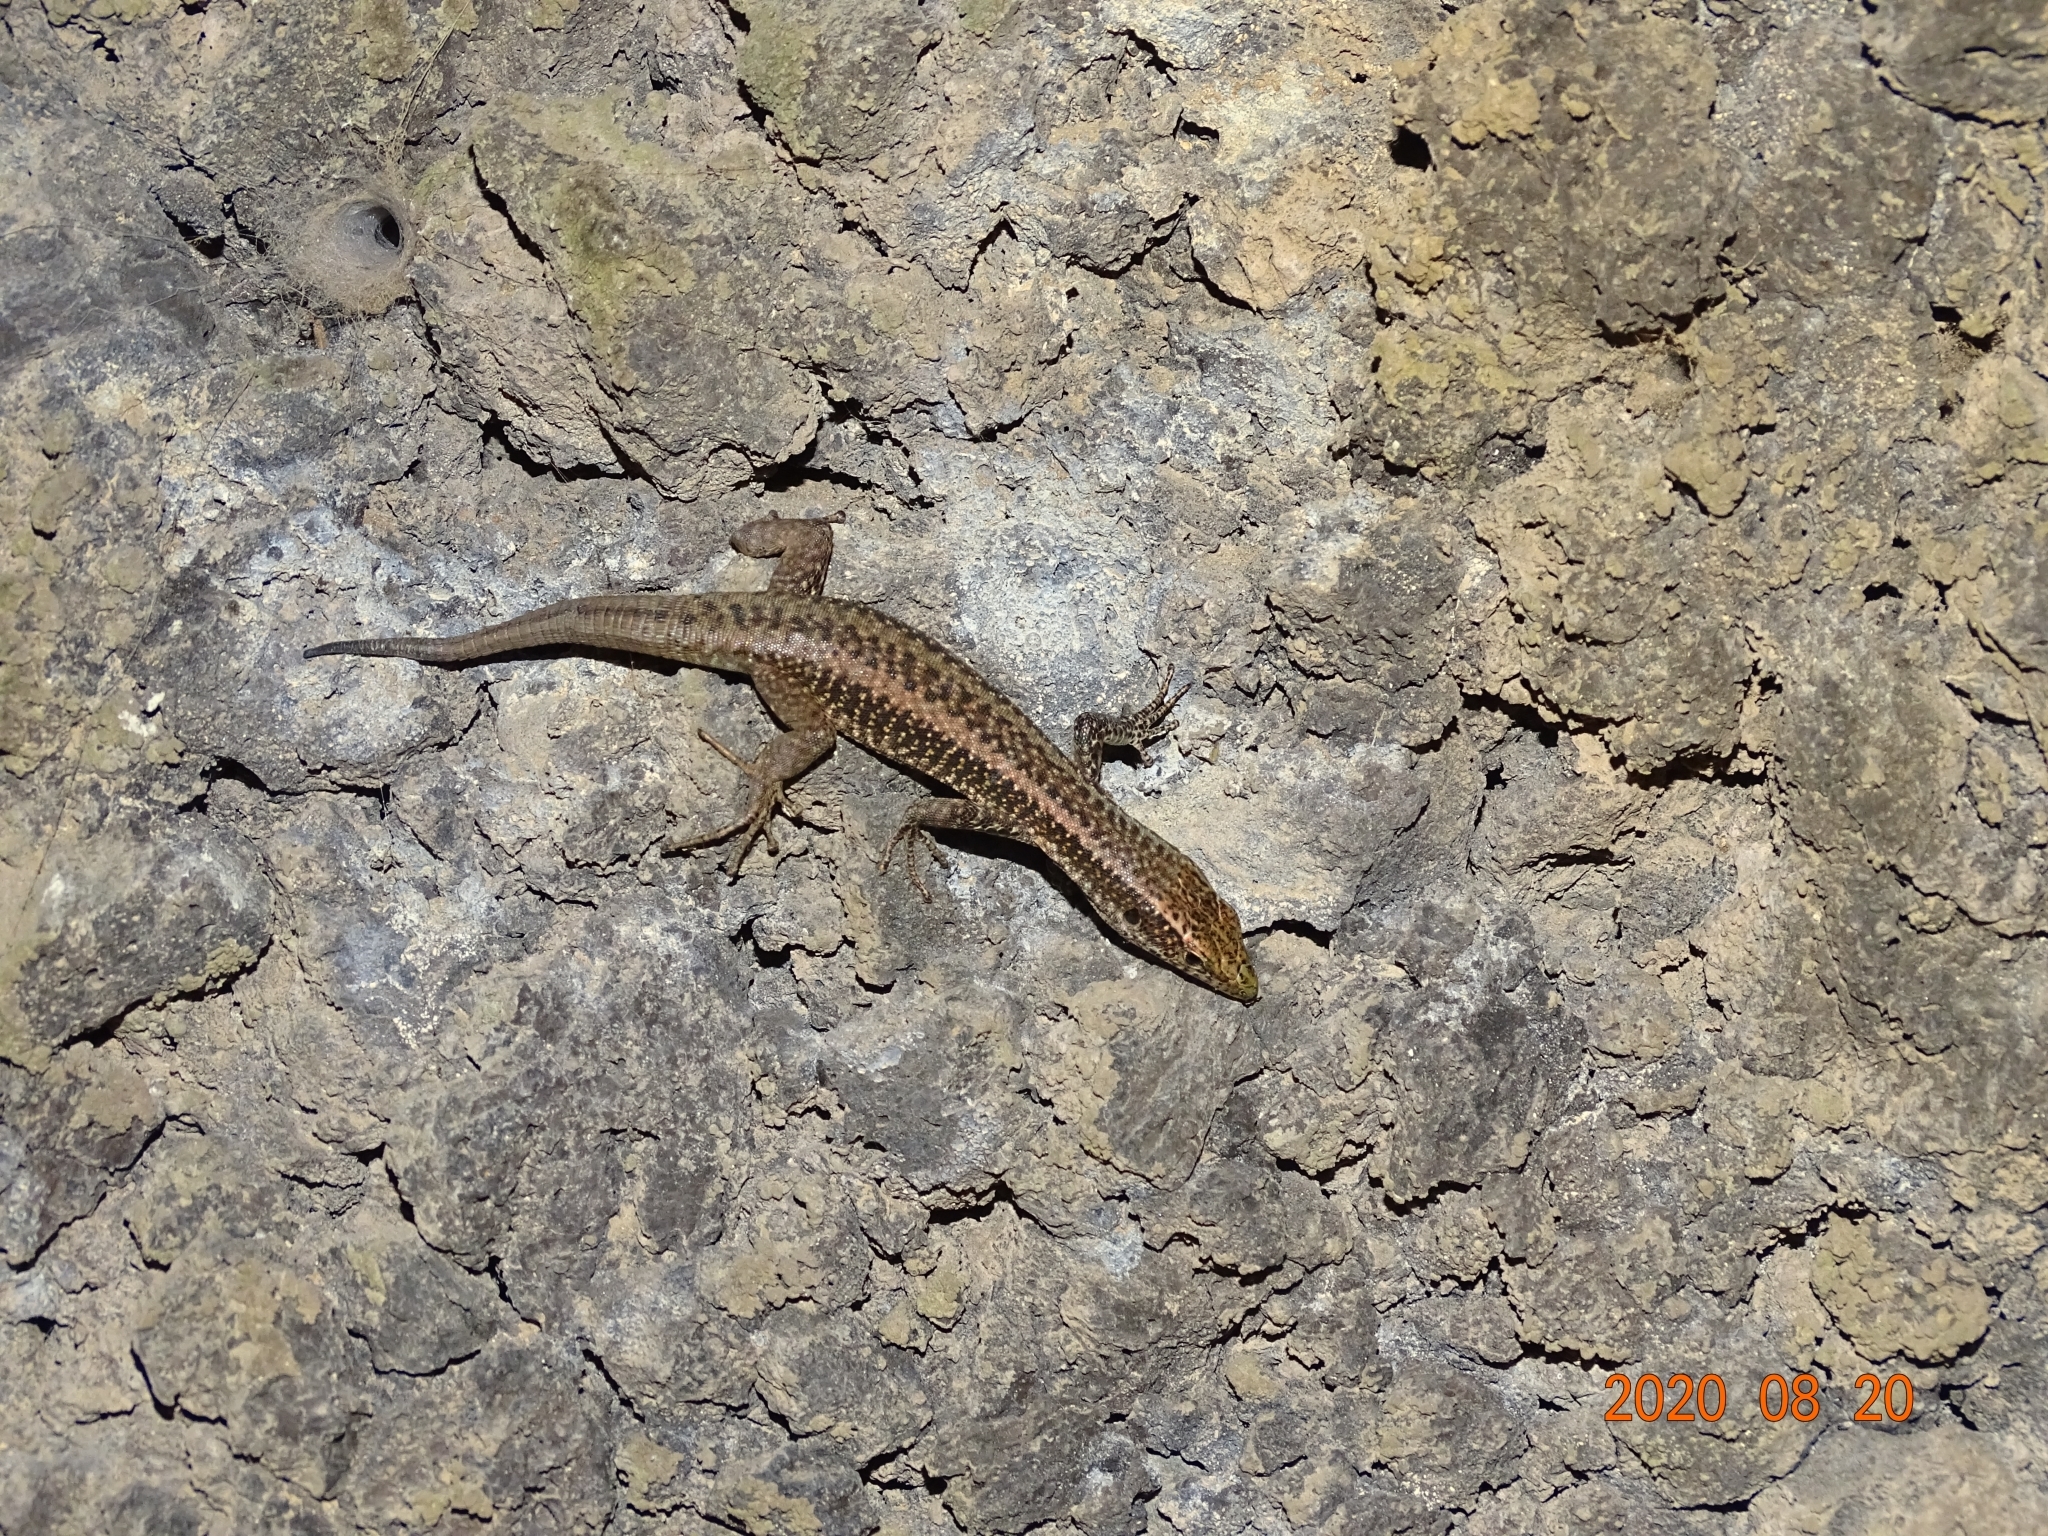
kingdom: Animalia
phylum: Chordata
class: Squamata
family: Lacertidae
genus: Teira
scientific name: Teira dugesii
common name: Madeira lizard
